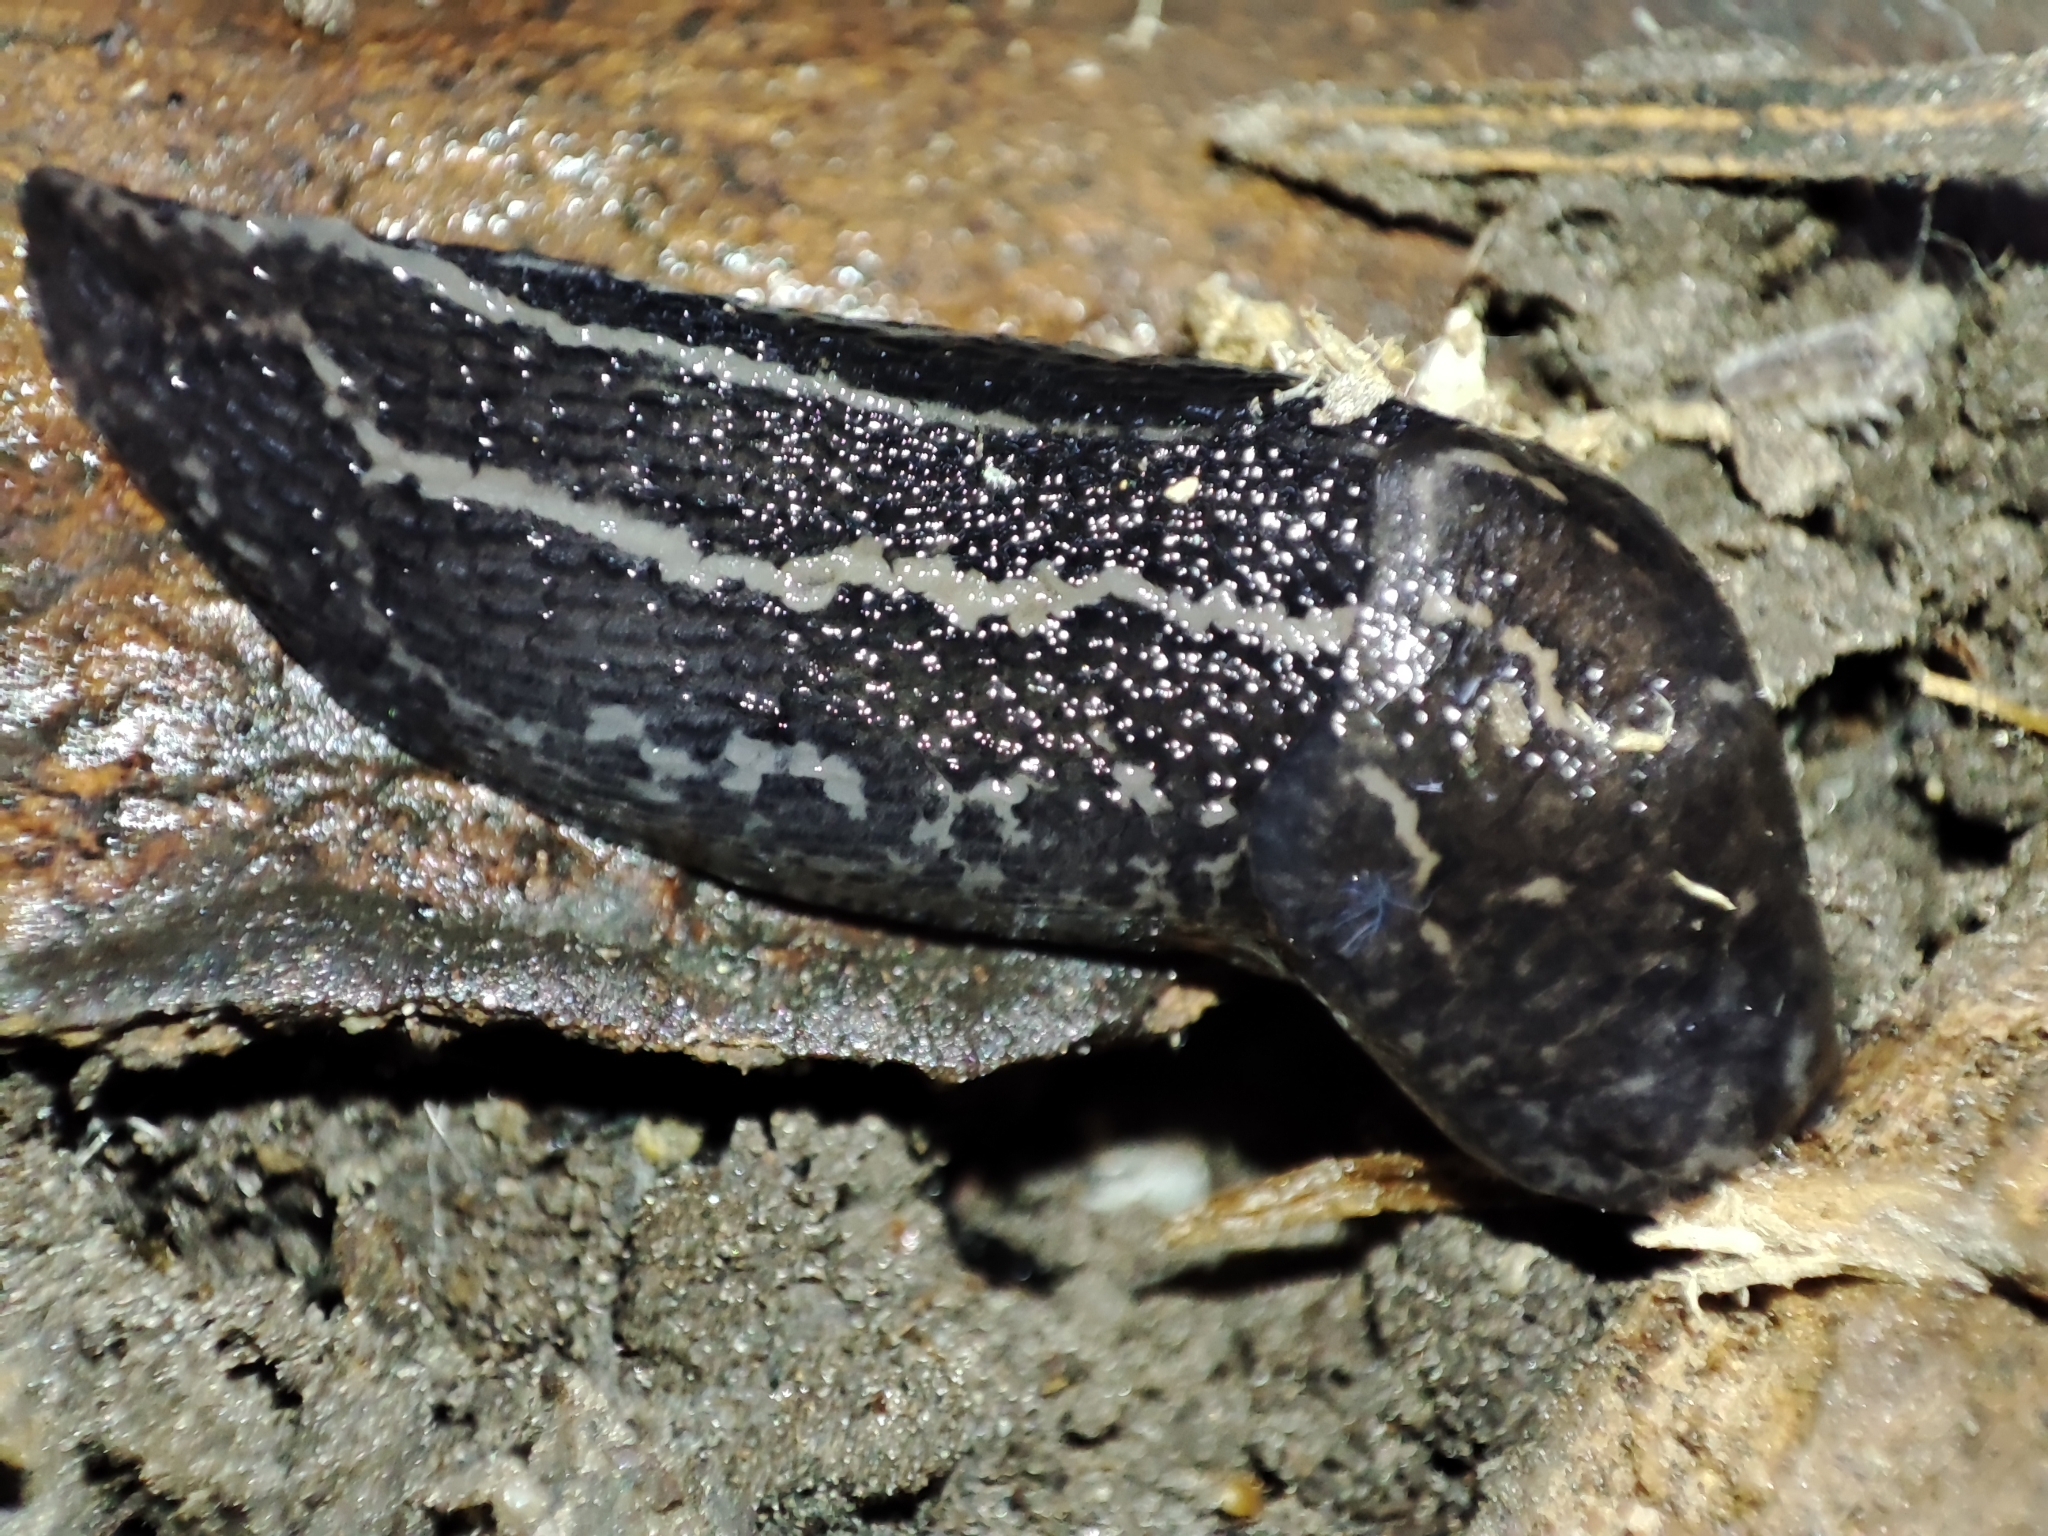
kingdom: Animalia
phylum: Mollusca
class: Gastropoda
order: Stylommatophora
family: Limacidae
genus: Limax
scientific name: Limax maximus
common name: Great grey slug
